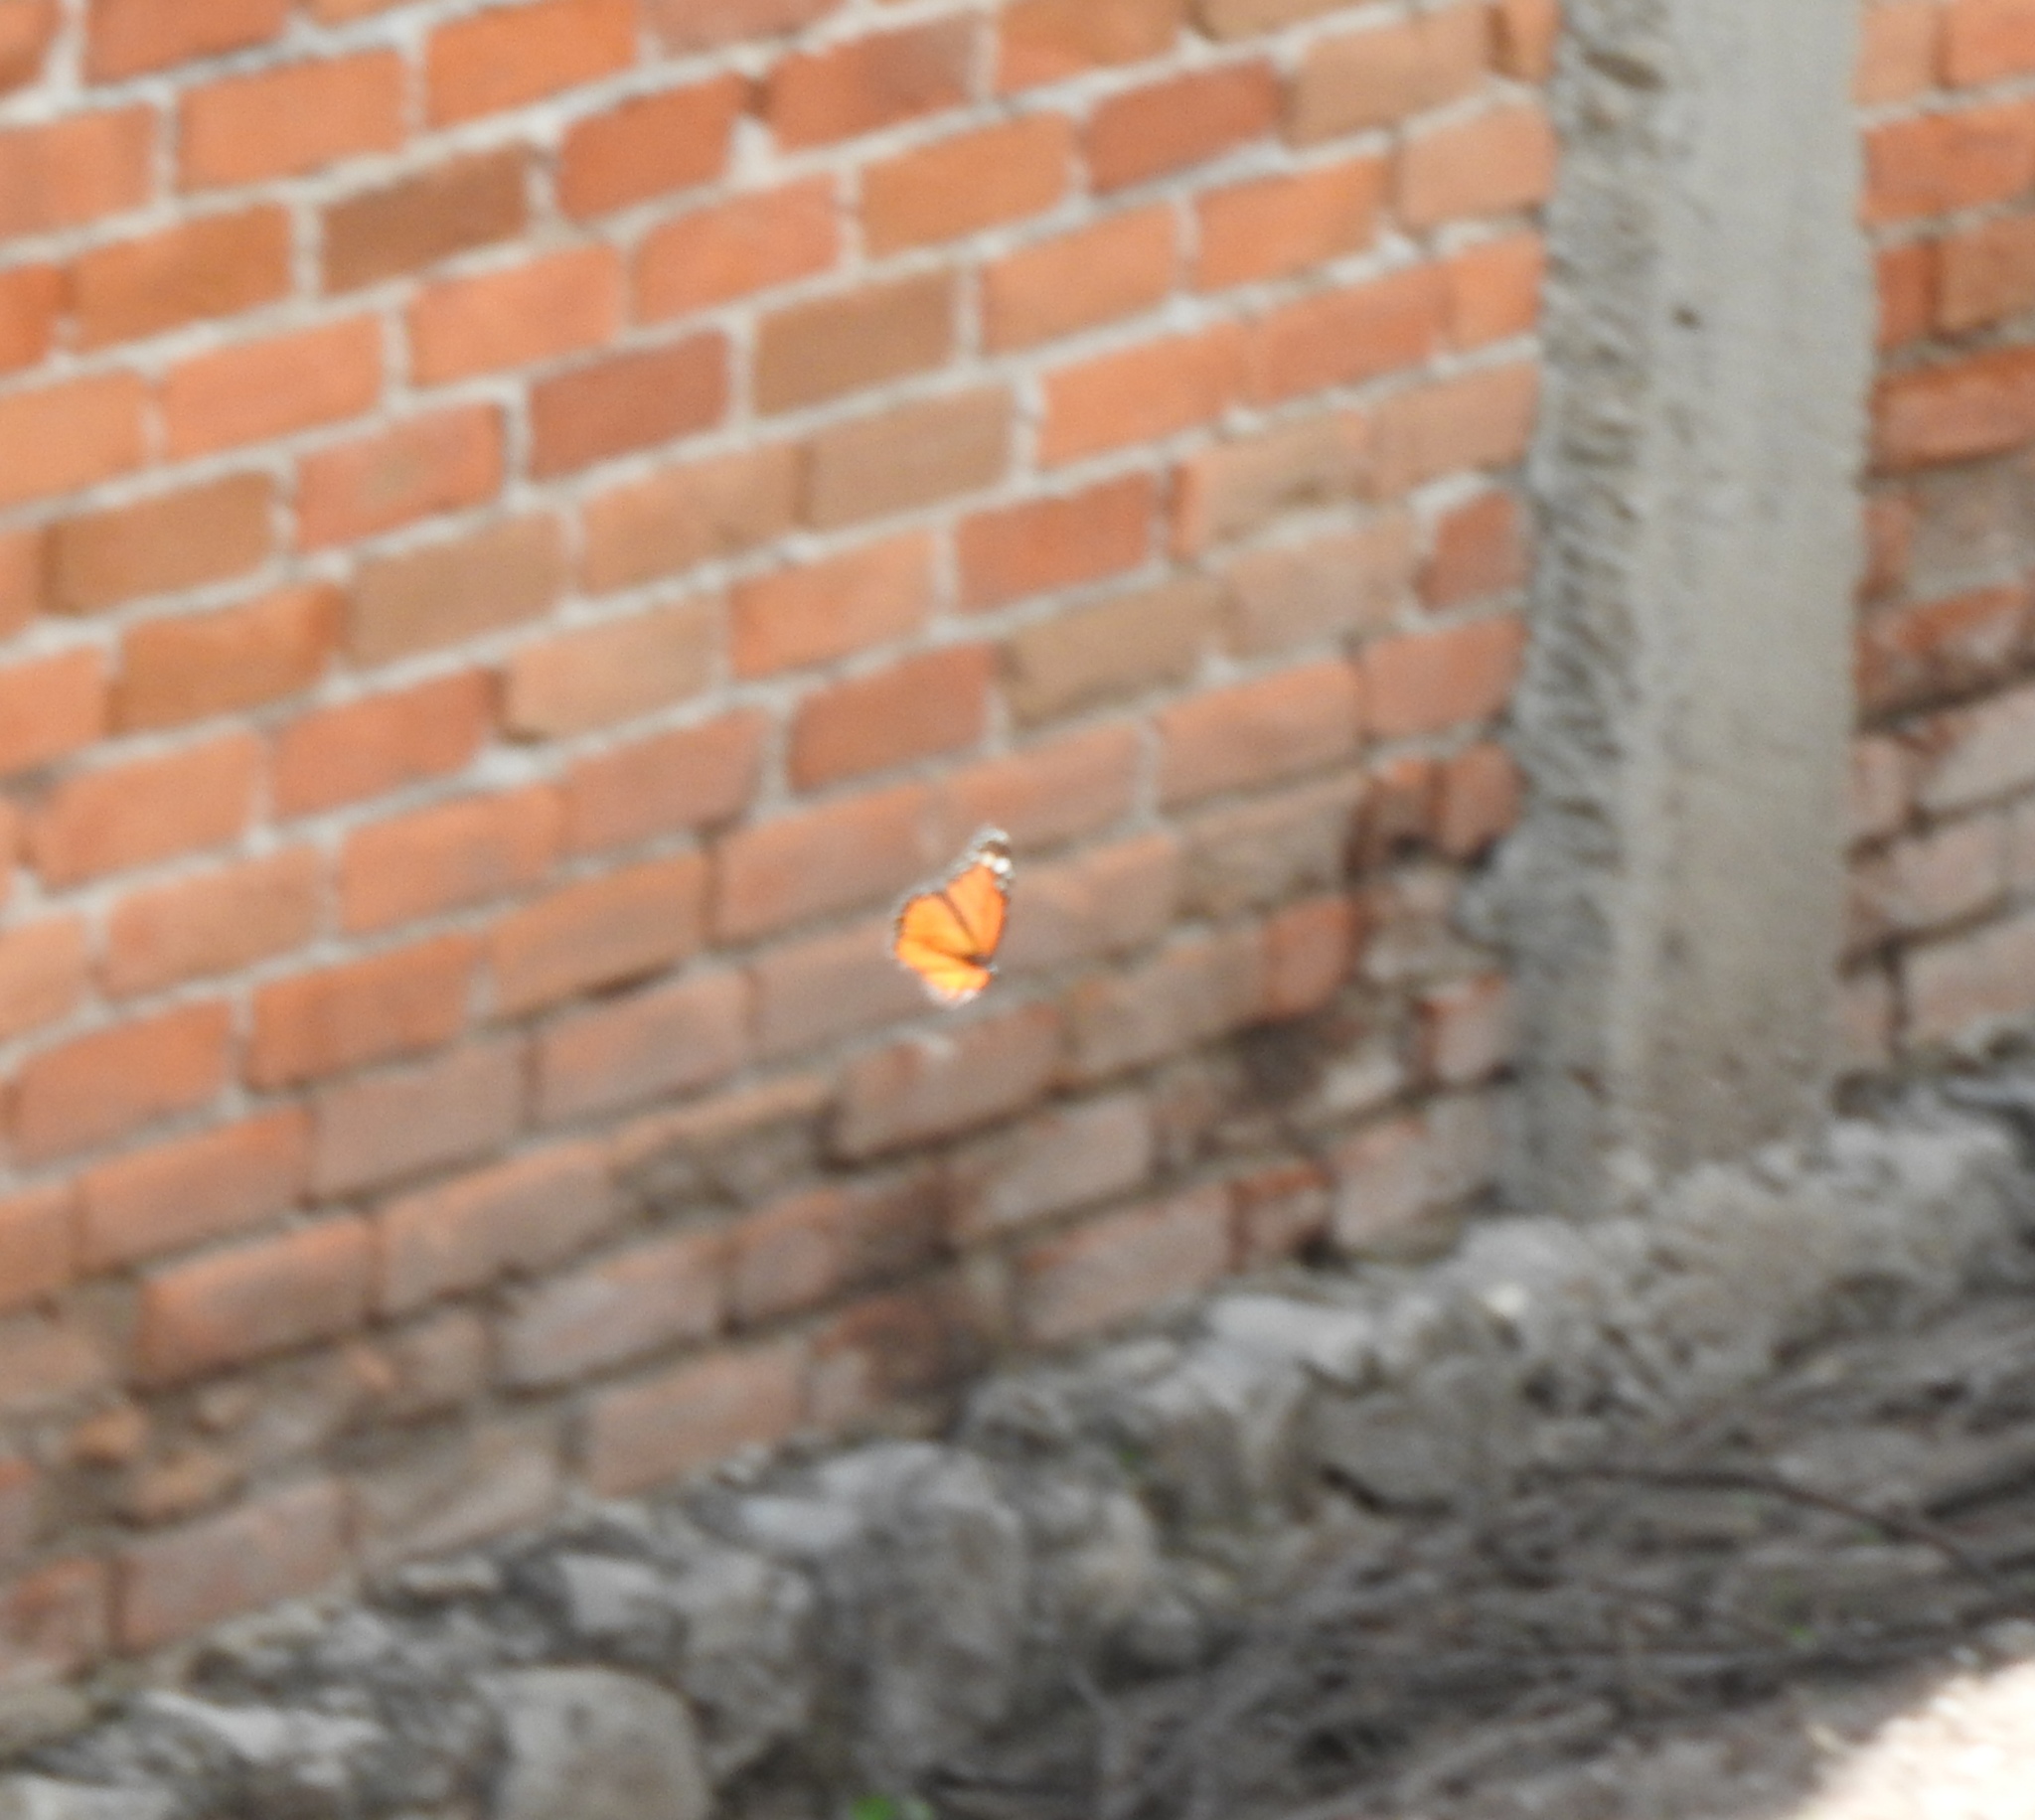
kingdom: Animalia
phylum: Arthropoda
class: Insecta
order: Lepidoptera
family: Nymphalidae
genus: Danaus
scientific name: Danaus plexippus
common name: Monarch
